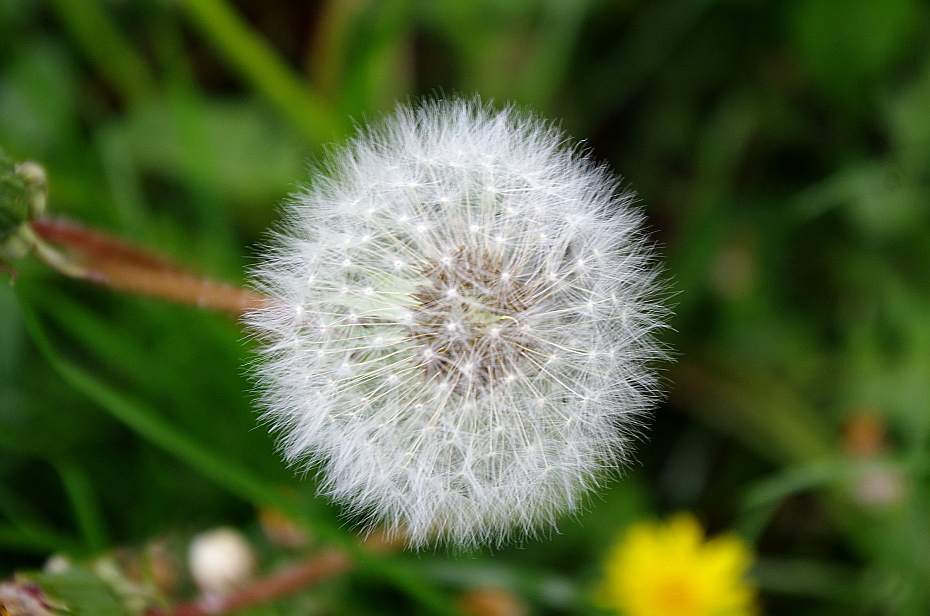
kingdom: Plantae
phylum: Tracheophyta
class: Magnoliopsida
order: Asterales
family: Asteraceae
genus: Taraxacum
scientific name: Taraxacum officinale
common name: Common dandelion
